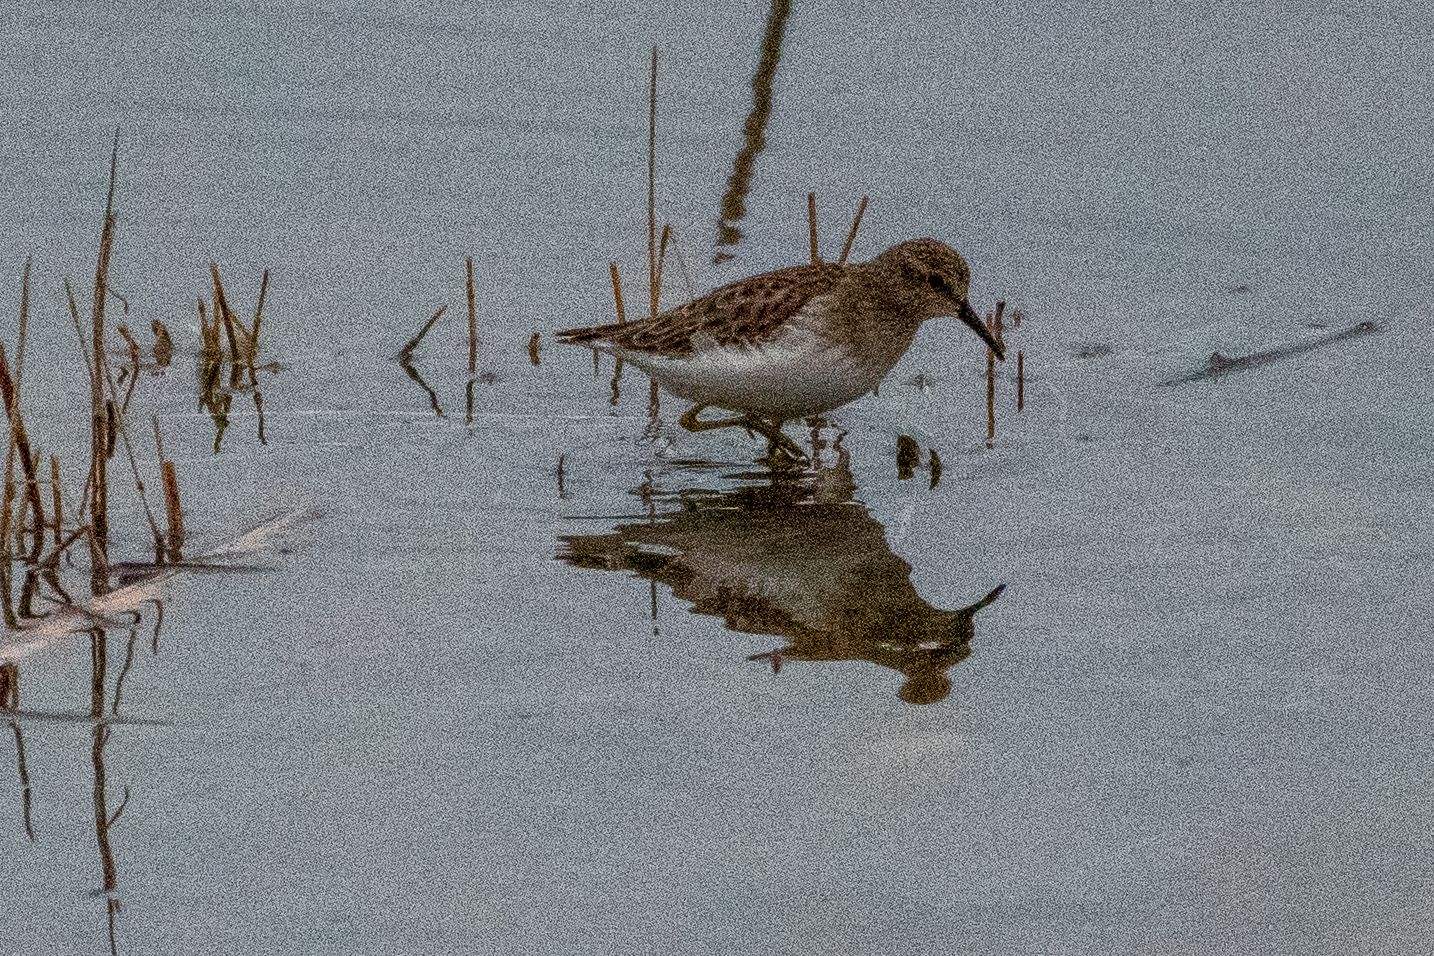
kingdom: Animalia
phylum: Chordata
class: Aves
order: Charadriiformes
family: Scolopacidae
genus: Calidris
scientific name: Calidris minutilla
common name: Least sandpiper
